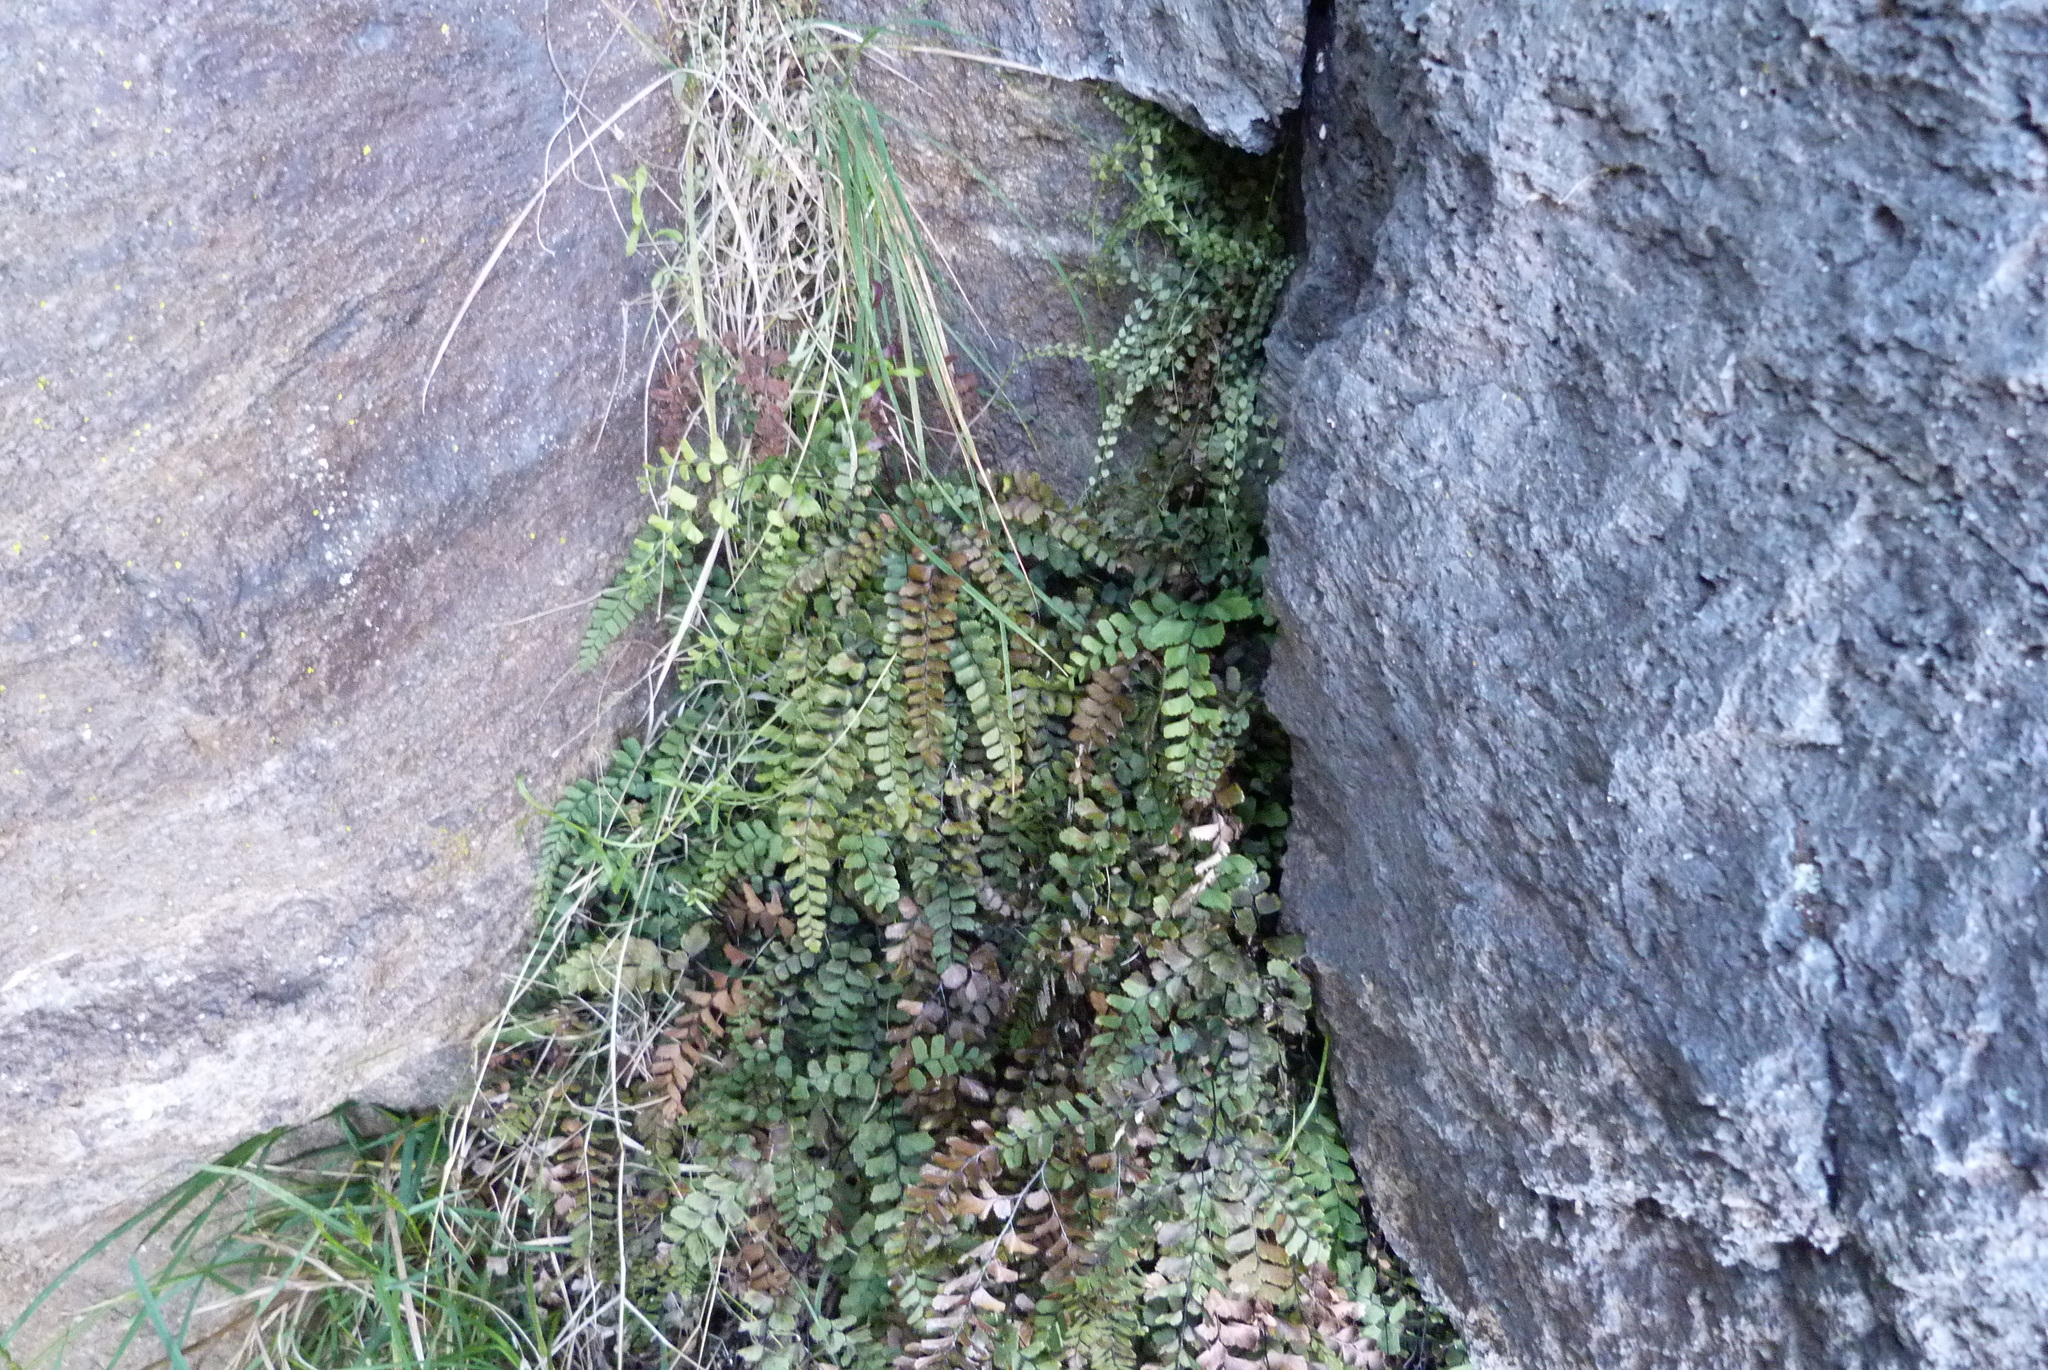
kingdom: Plantae
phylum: Tracheophyta
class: Polypodiopsida
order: Polypodiales
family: Pteridaceae
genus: Adiantum
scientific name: Adiantum cunninghamii
